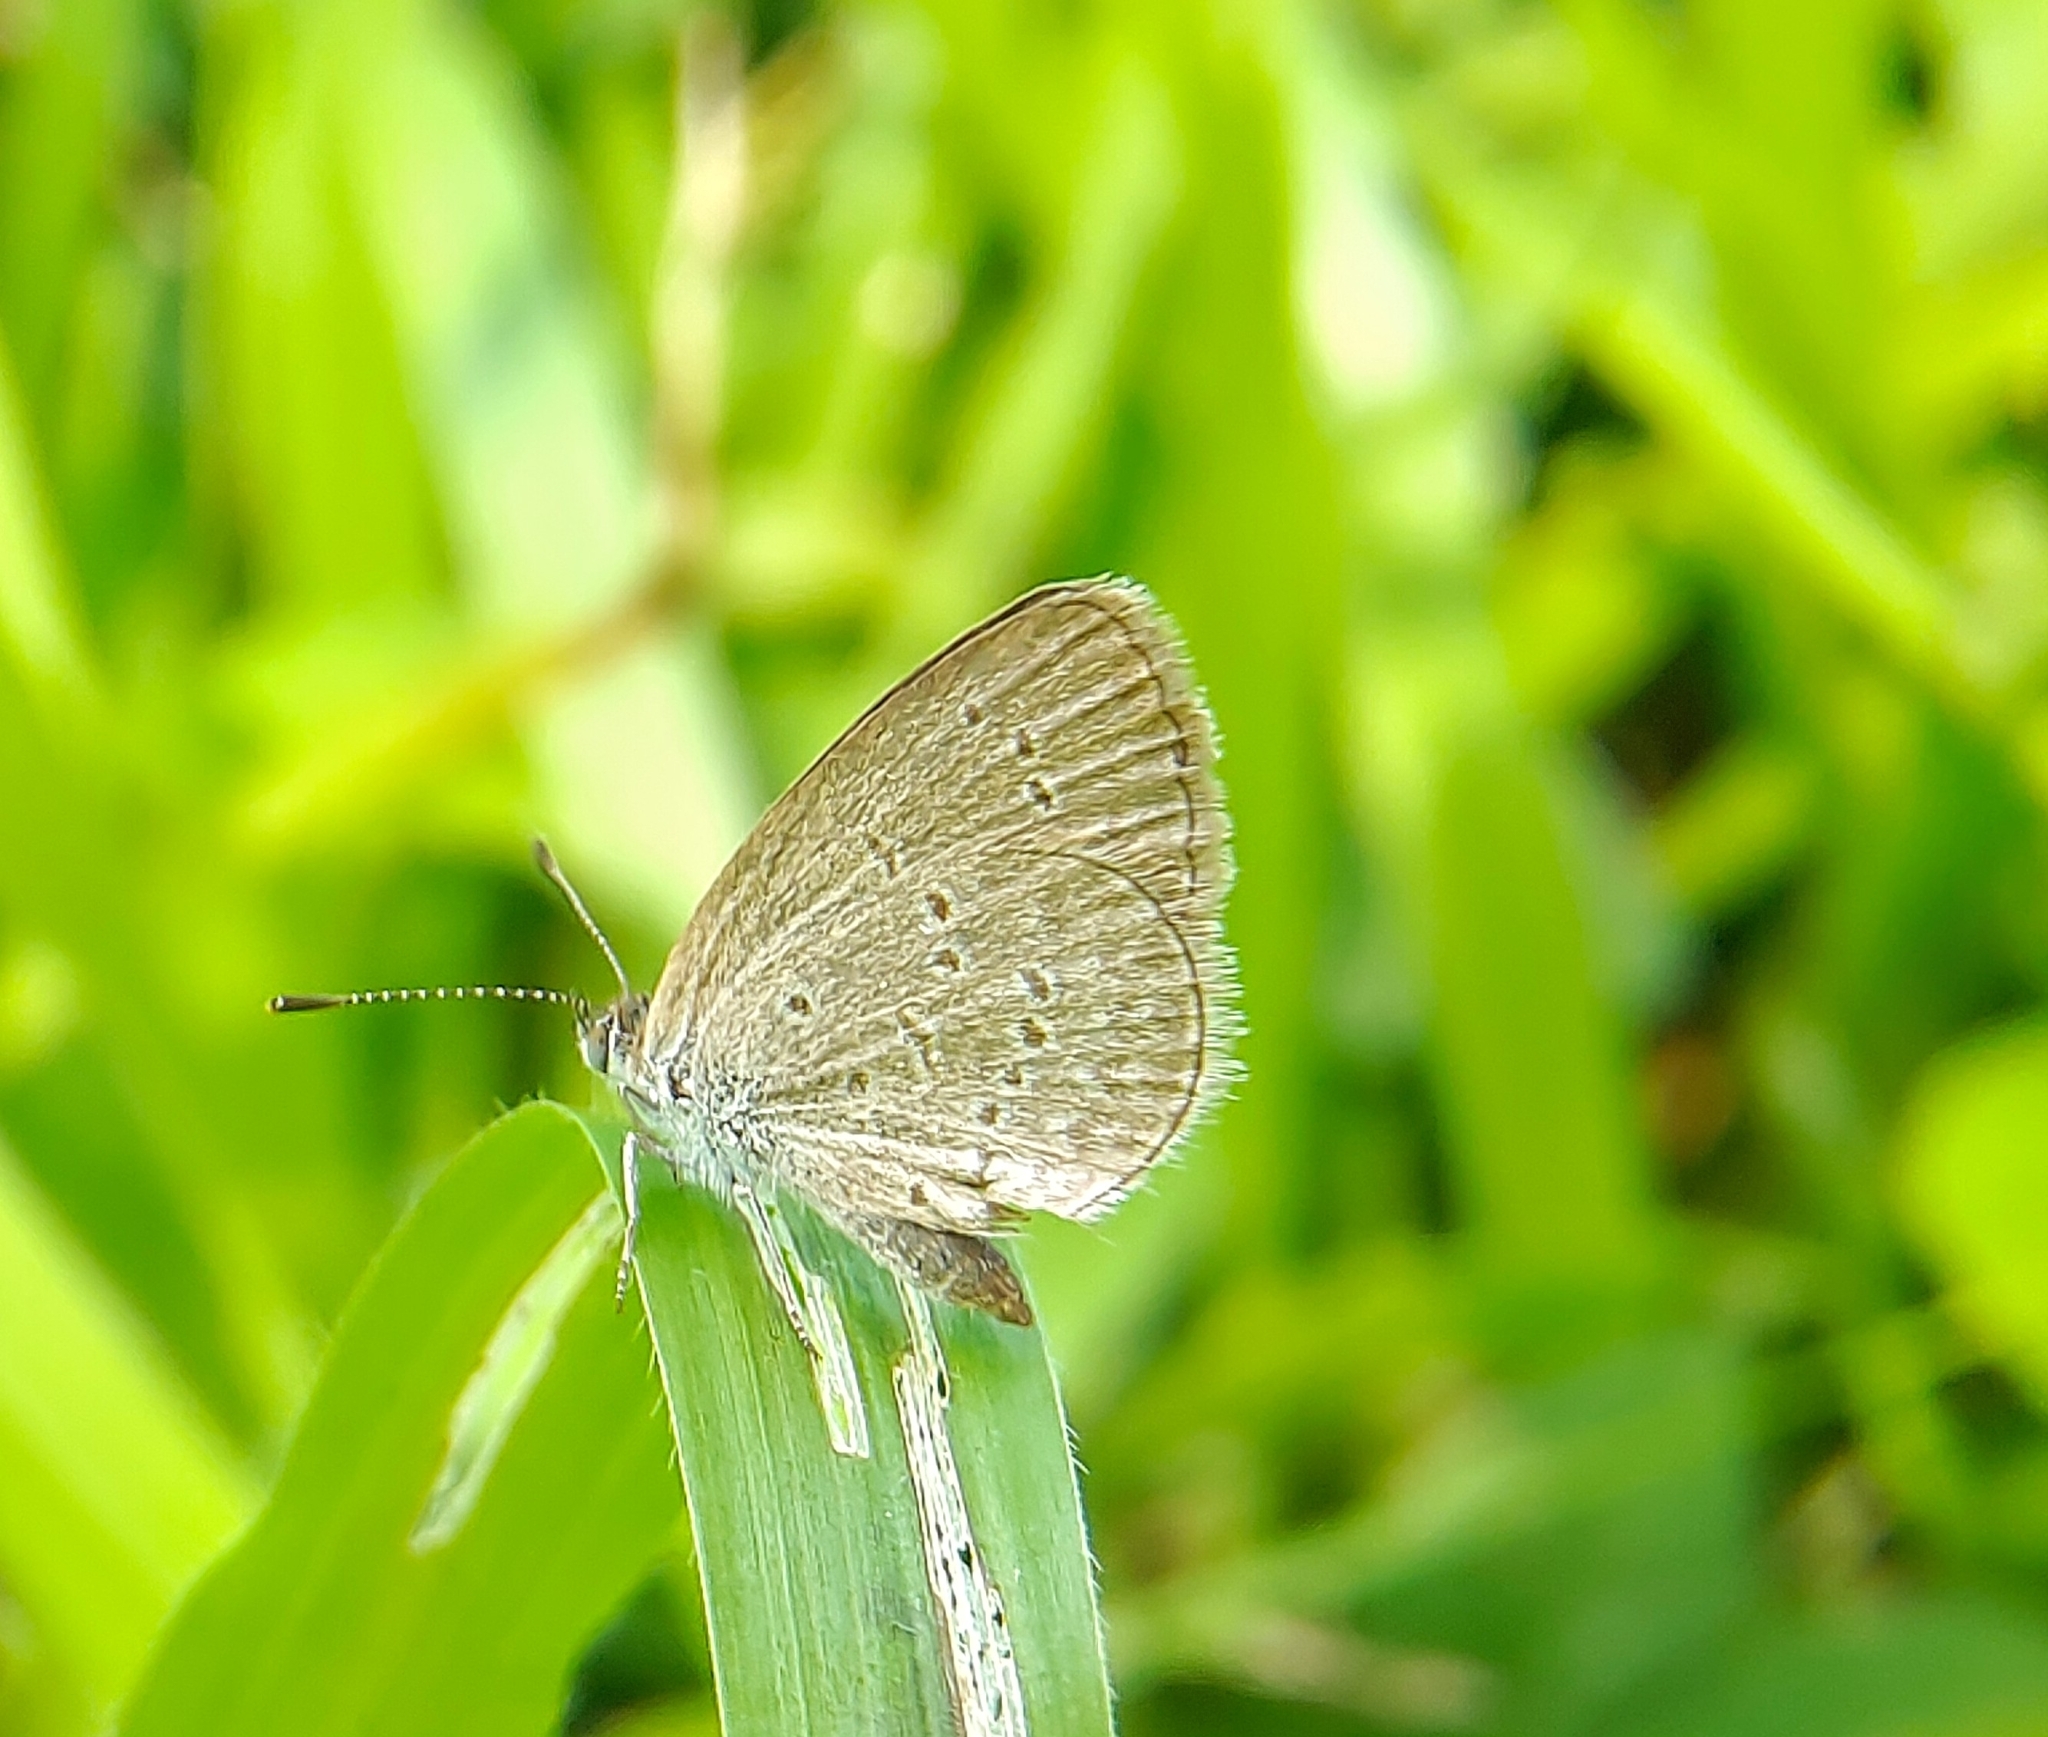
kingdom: Animalia
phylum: Arthropoda
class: Insecta
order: Lepidoptera
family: Lycaenidae
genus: Zizina
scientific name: Zizina otis
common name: Lesser grass blue
